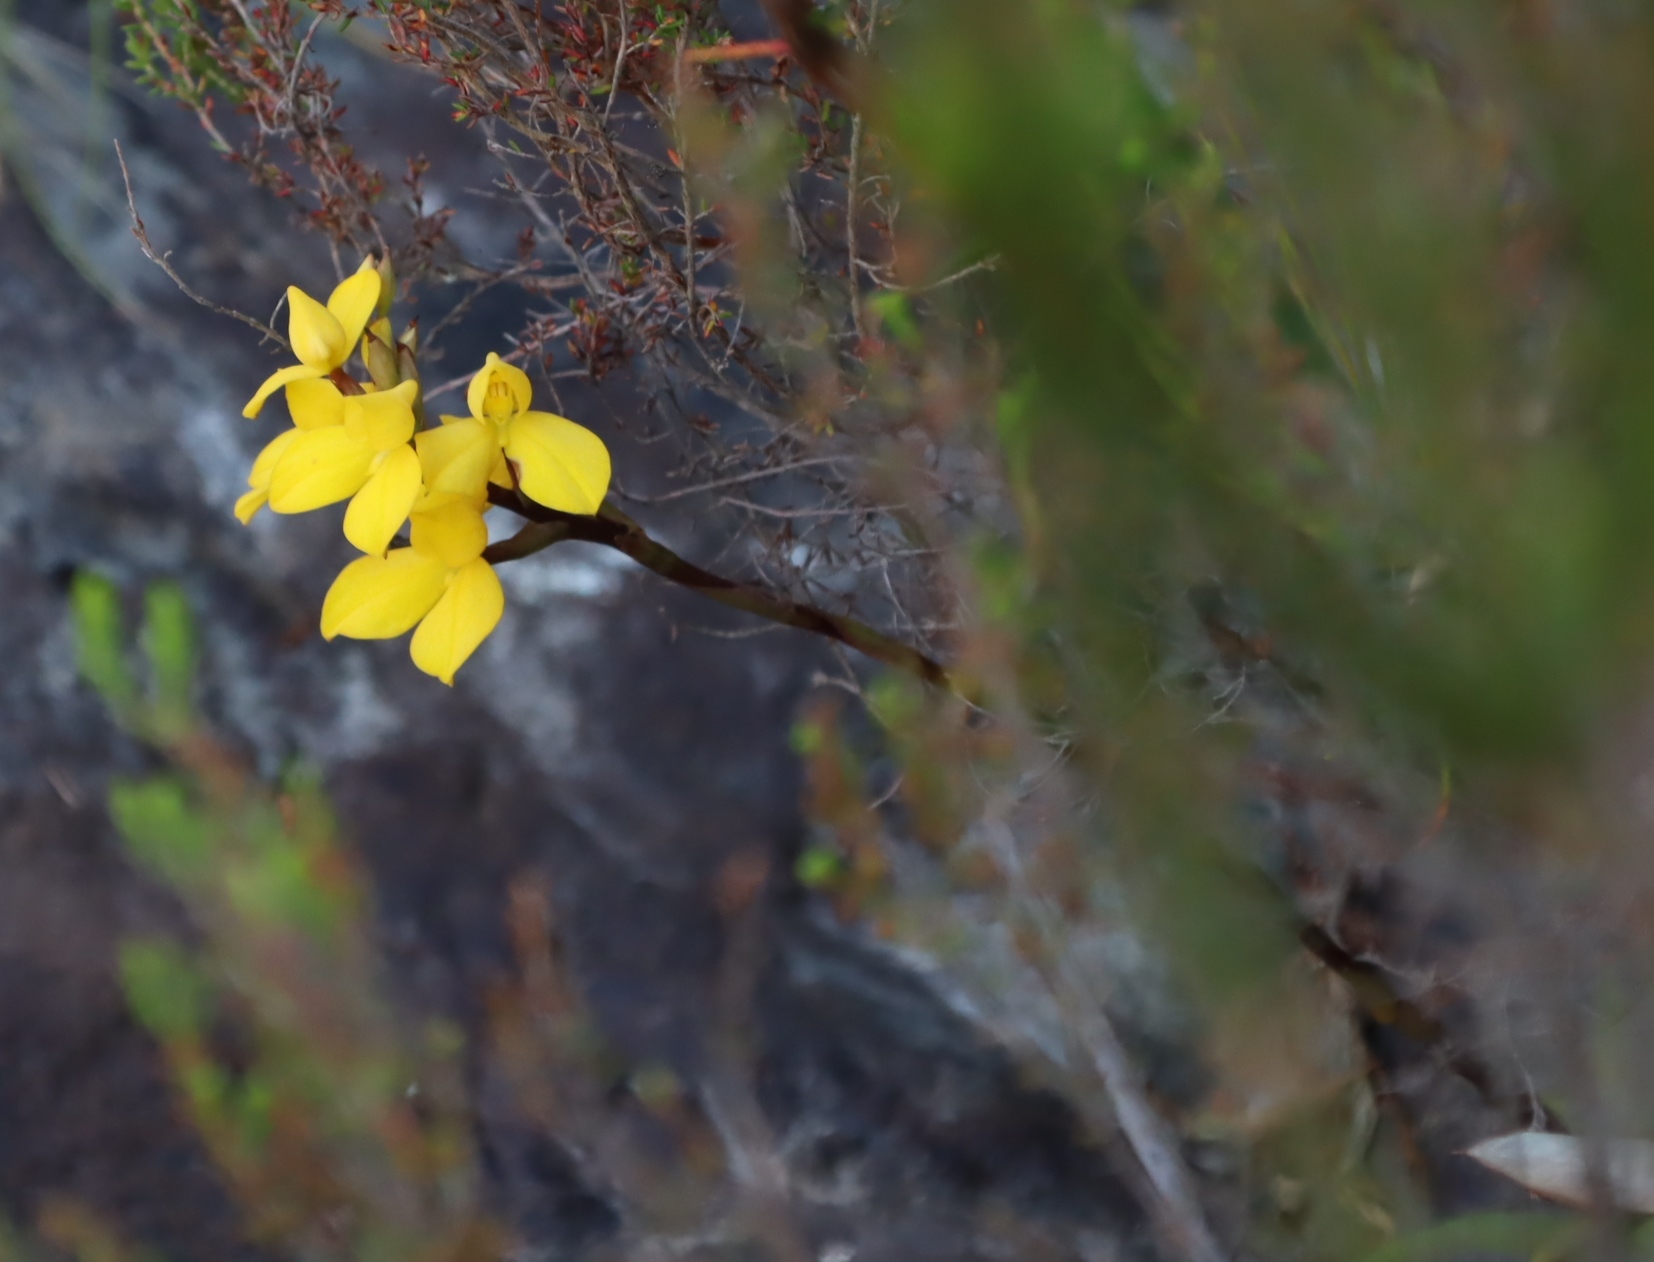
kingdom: Plantae
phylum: Tracheophyta
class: Liliopsida
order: Asparagales
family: Orchidaceae
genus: Disa
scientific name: Disa aurata
